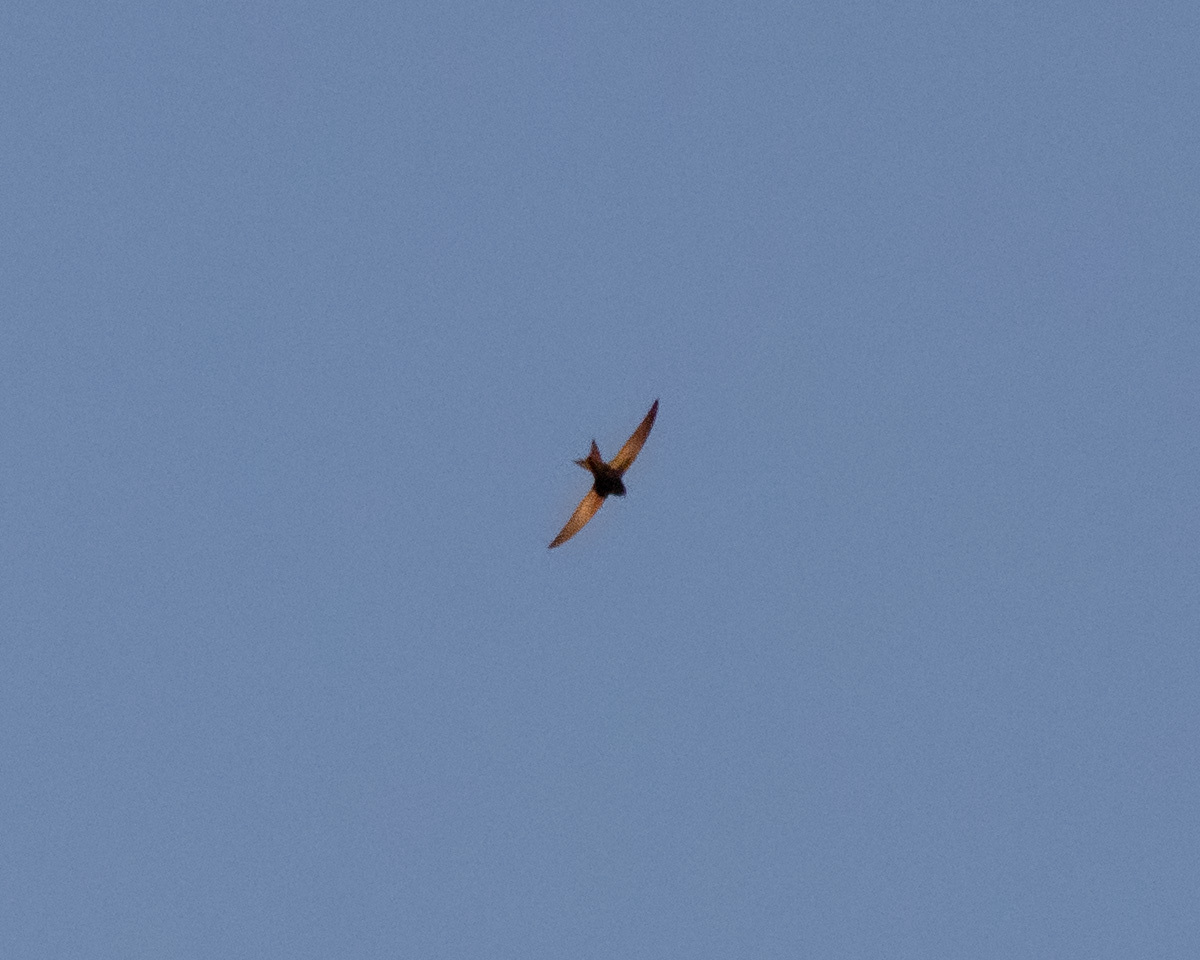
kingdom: Animalia
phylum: Chordata
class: Aves
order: Apodiformes
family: Apodidae
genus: Apus
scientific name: Apus apus
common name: Common swift
